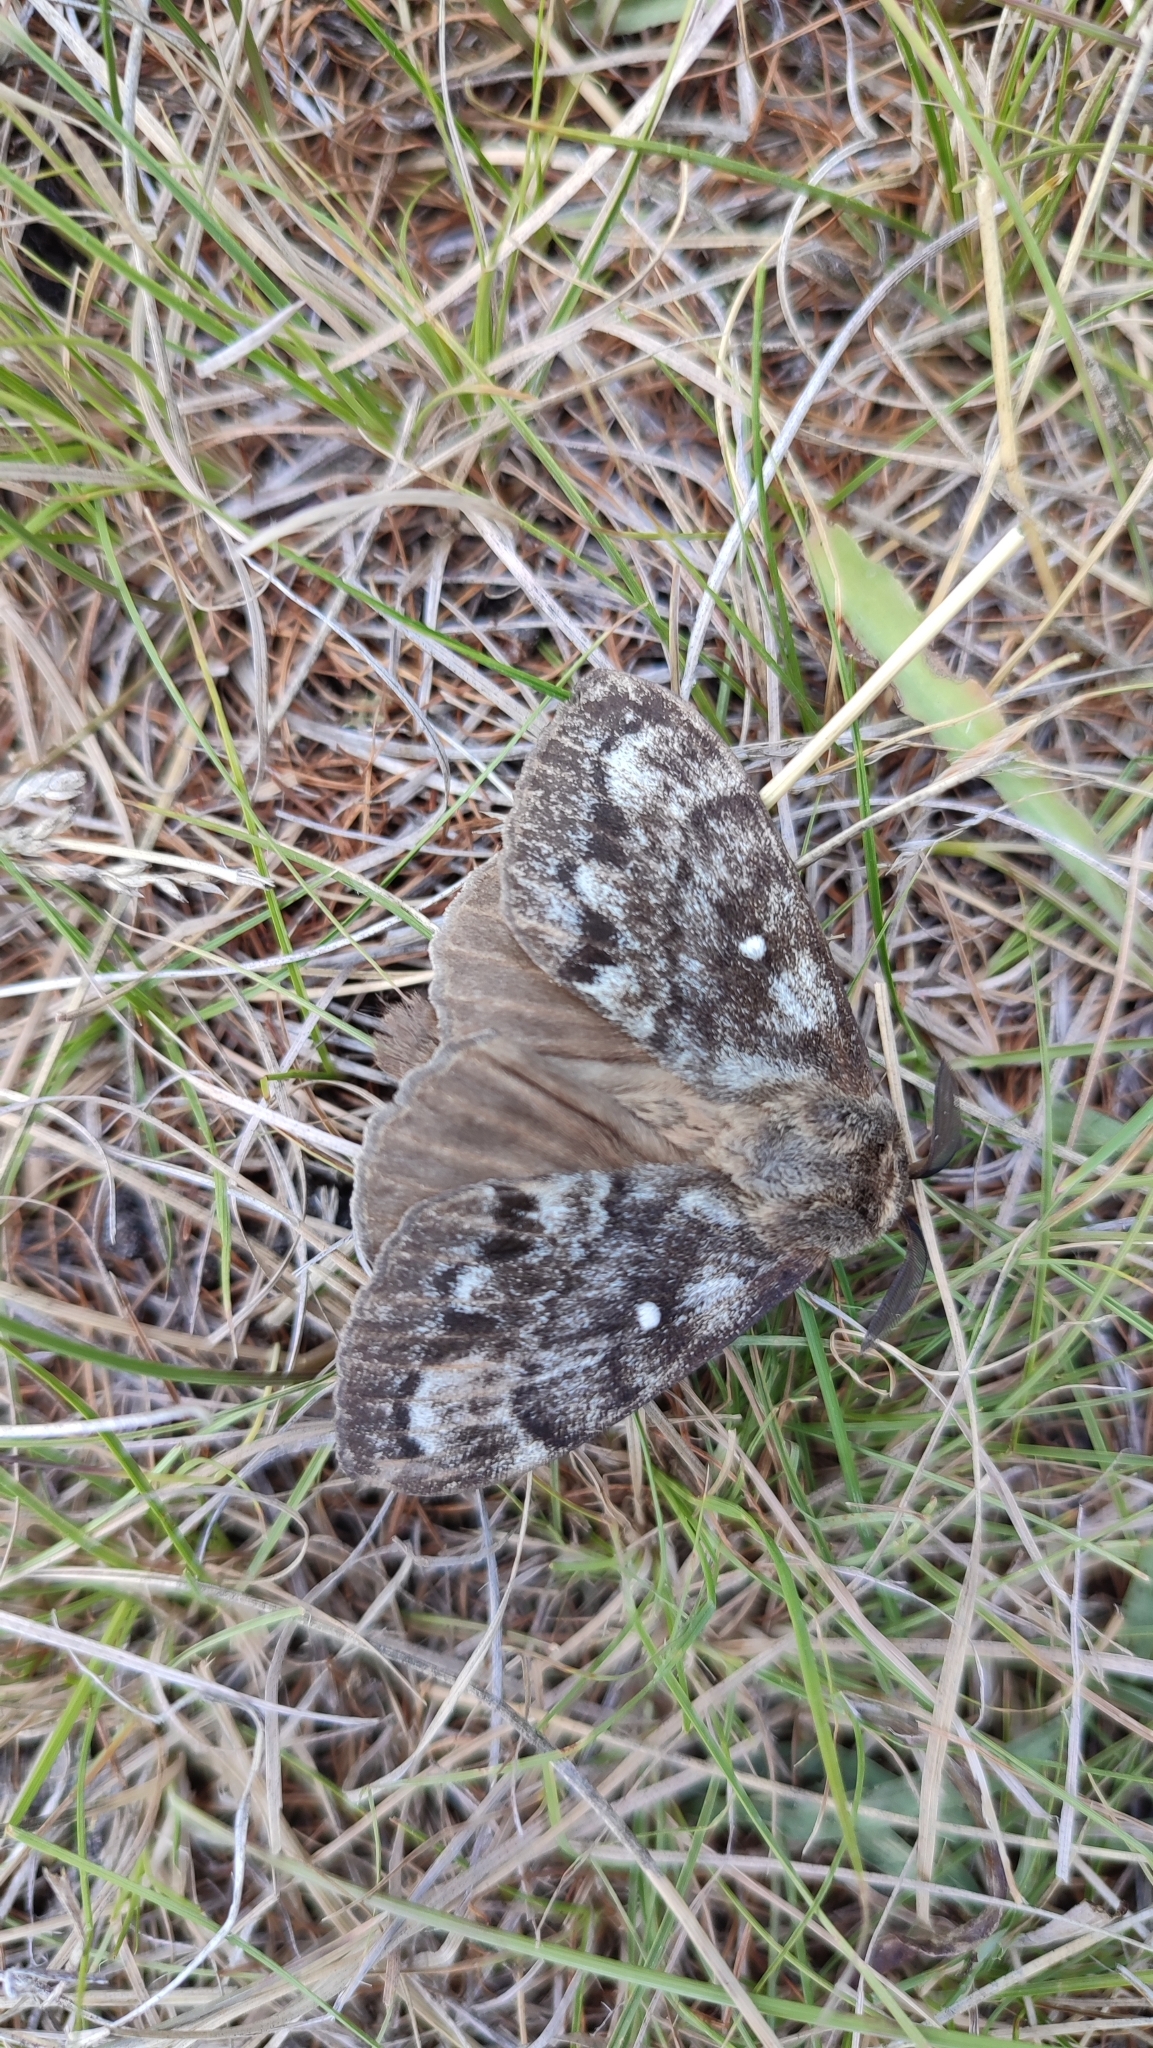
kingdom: Animalia
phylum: Arthropoda
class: Insecta
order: Lepidoptera
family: Lasiocampidae
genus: Dendrolimus
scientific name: Dendrolimus superans
